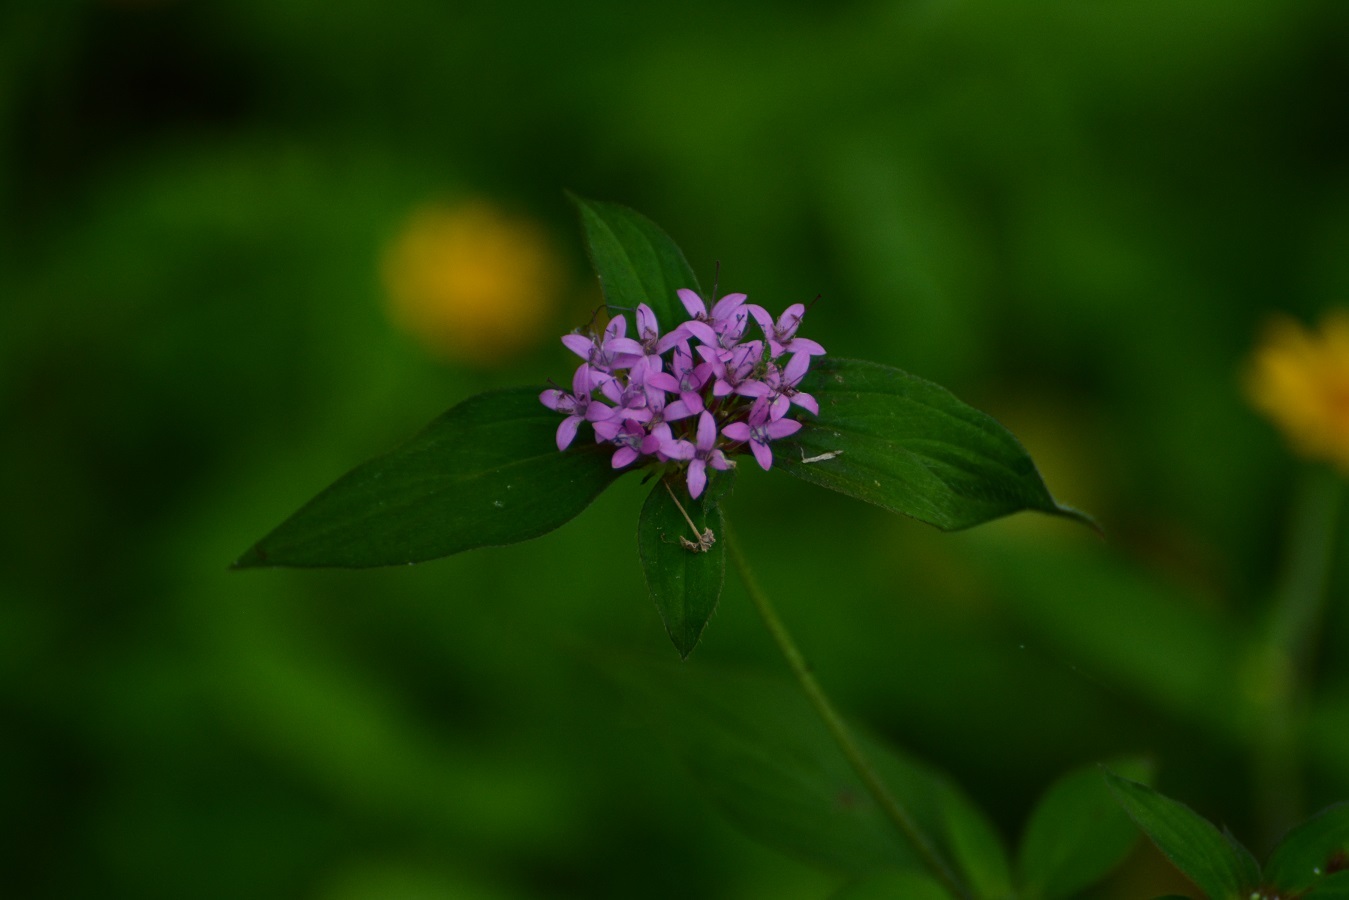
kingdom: Plantae
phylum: Tracheophyta
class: Magnoliopsida
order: Gentianales
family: Rubiaceae
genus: Crusea
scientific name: Crusea hispida
